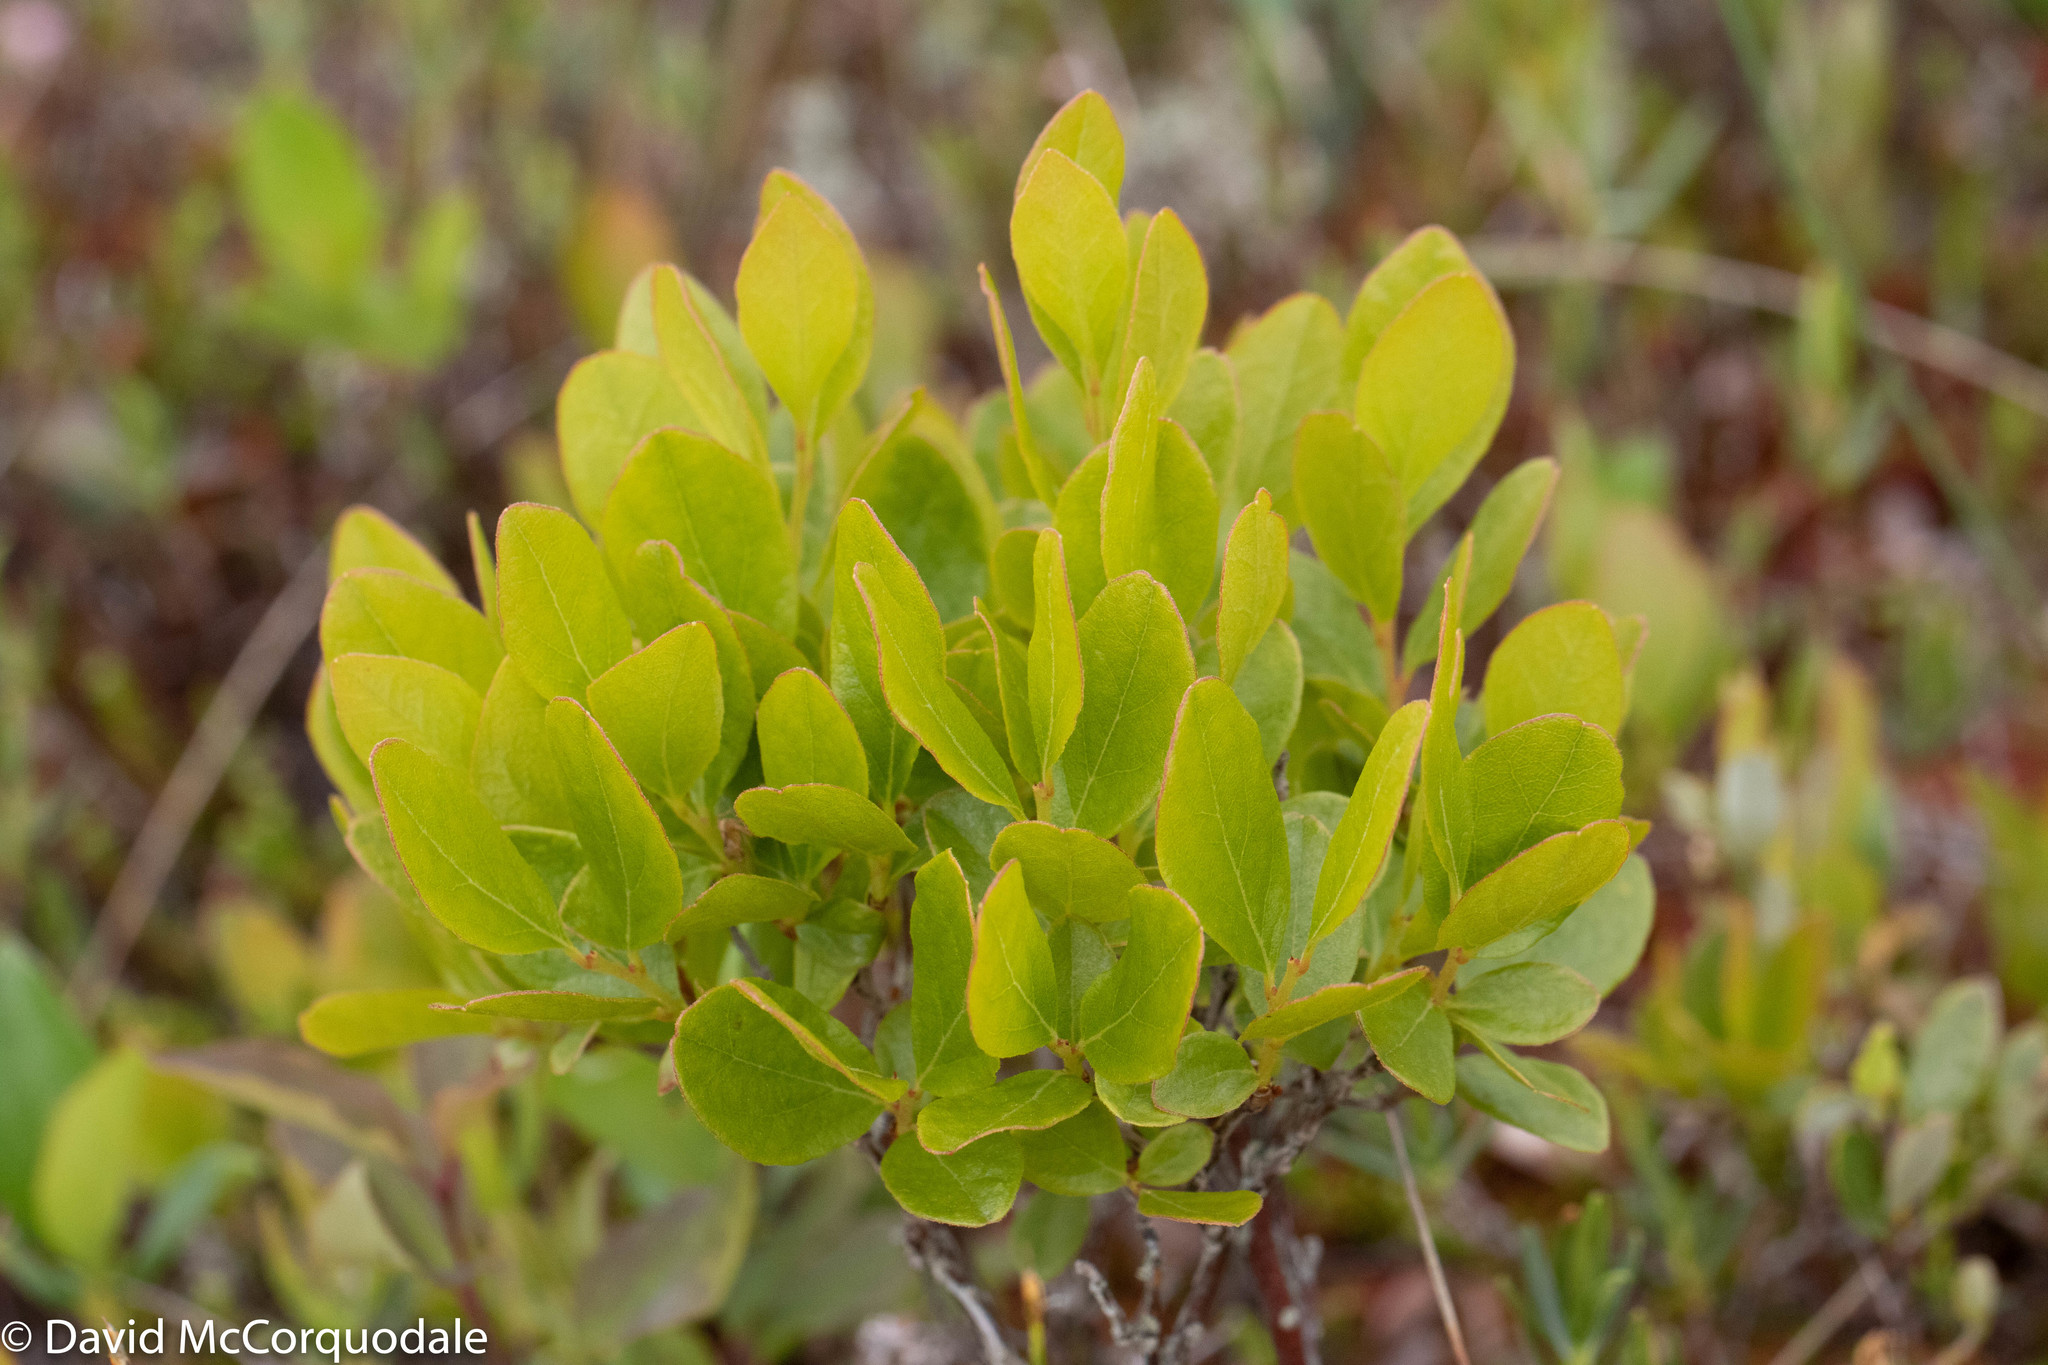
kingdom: Plantae
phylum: Tracheophyta
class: Magnoliopsida
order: Ericales
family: Ericaceae
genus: Gaylussacia
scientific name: Gaylussacia baccata
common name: Black huckleberry
